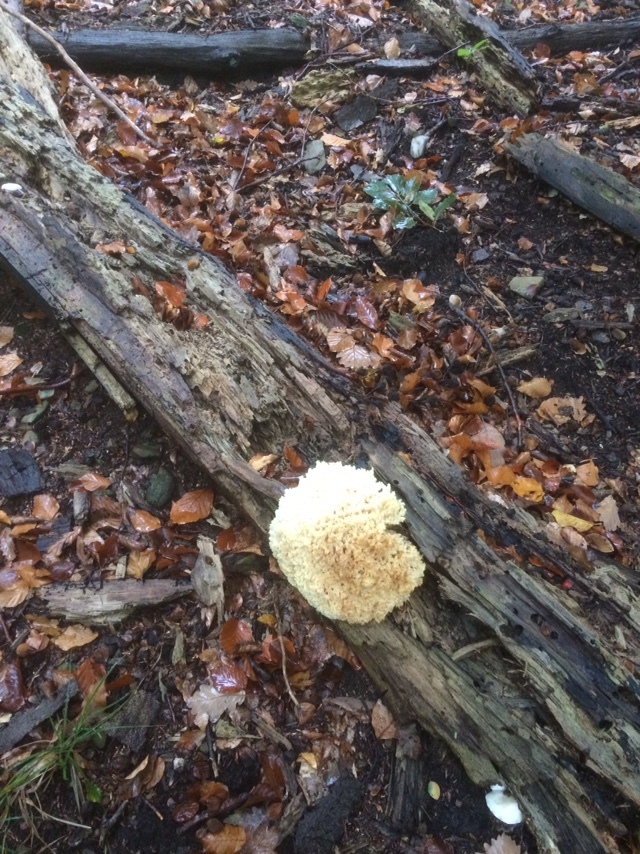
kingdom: Fungi
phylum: Basidiomycota
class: Agaricomycetes
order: Russulales
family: Hericiaceae
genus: Hericium
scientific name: Hericium coralloides
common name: Coral tooth
